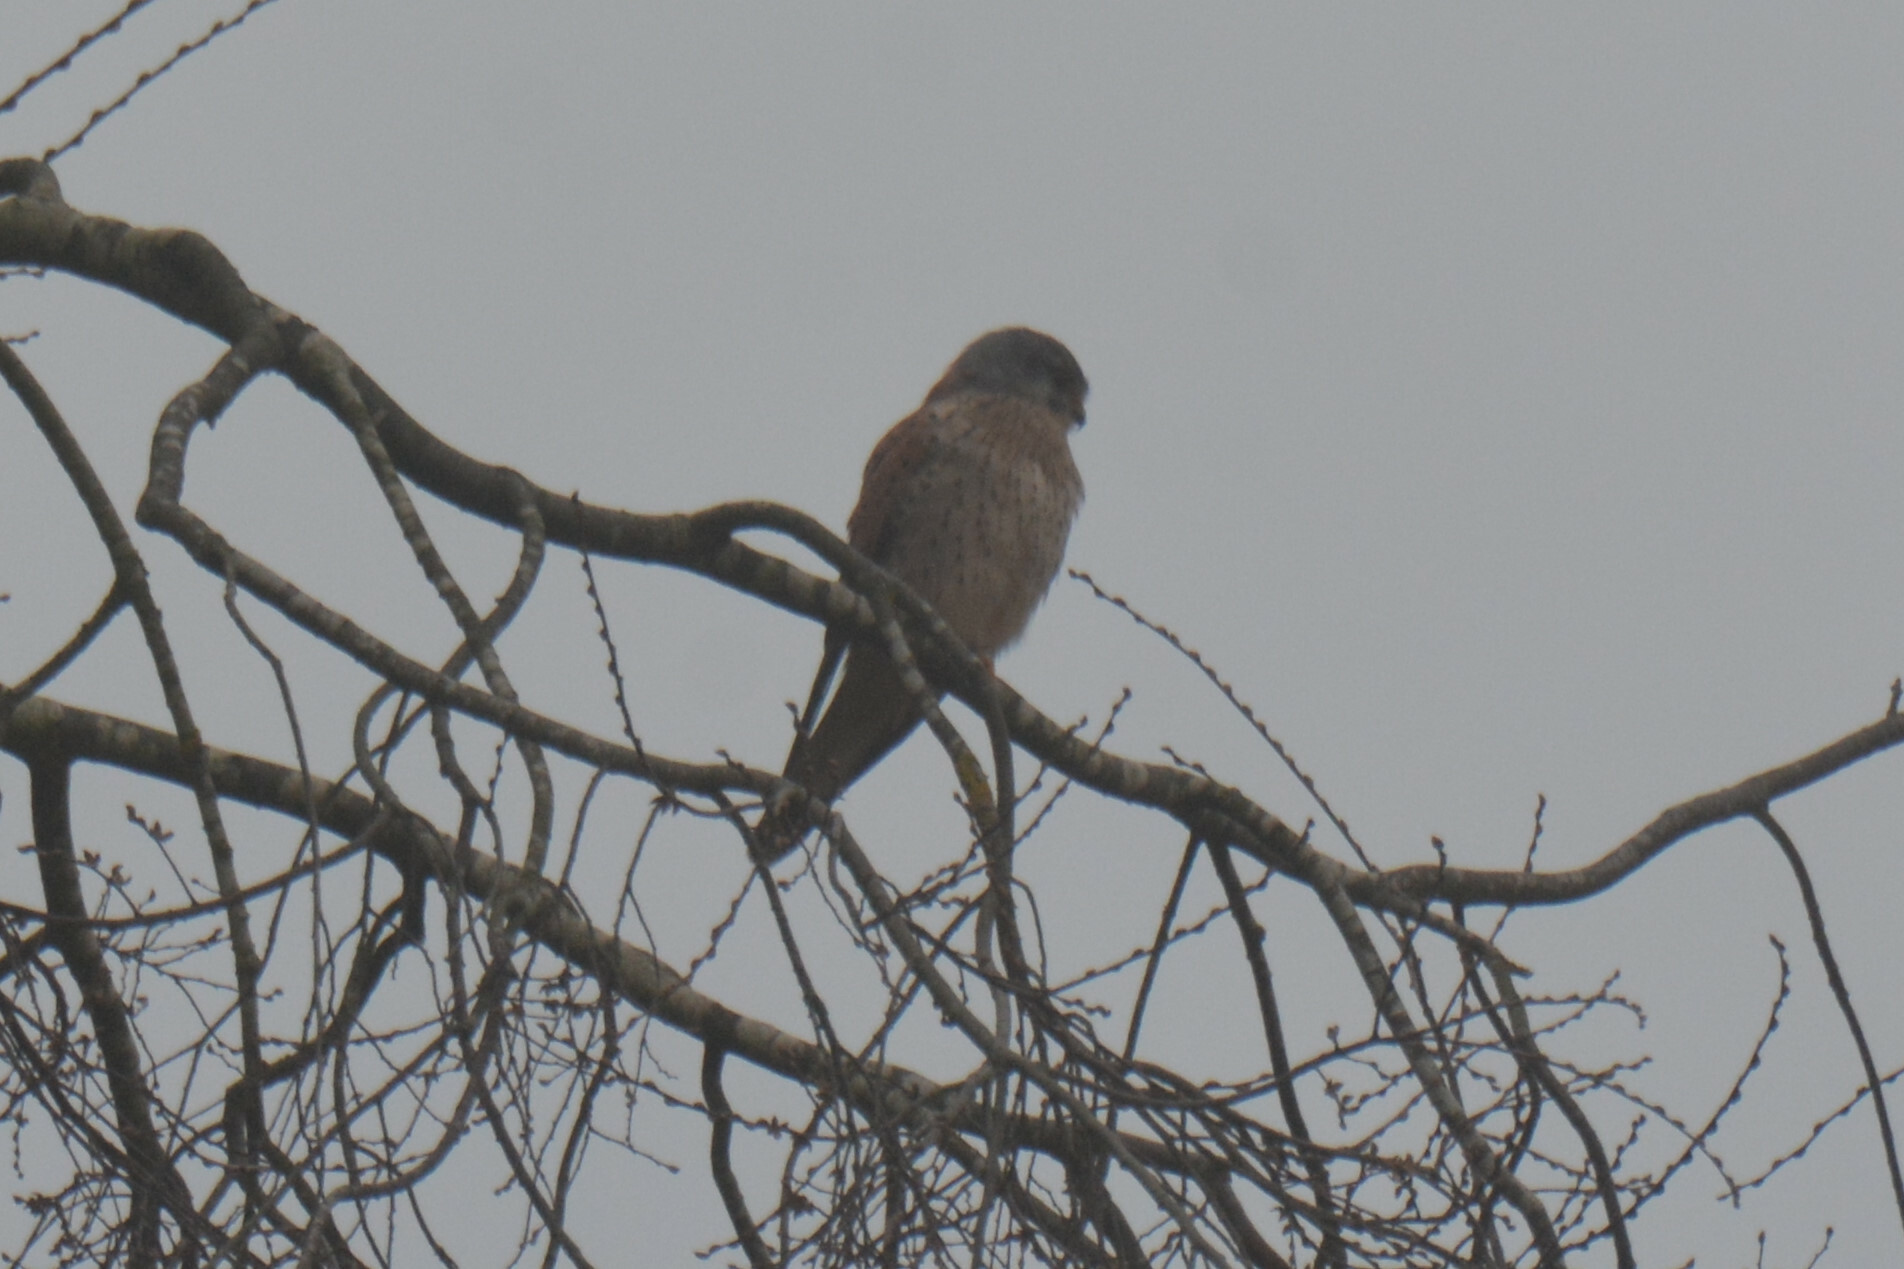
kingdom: Animalia
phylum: Chordata
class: Aves
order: Falconiformes
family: Falconidae
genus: Falco
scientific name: Falco tinnunculus
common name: Common kestrel
